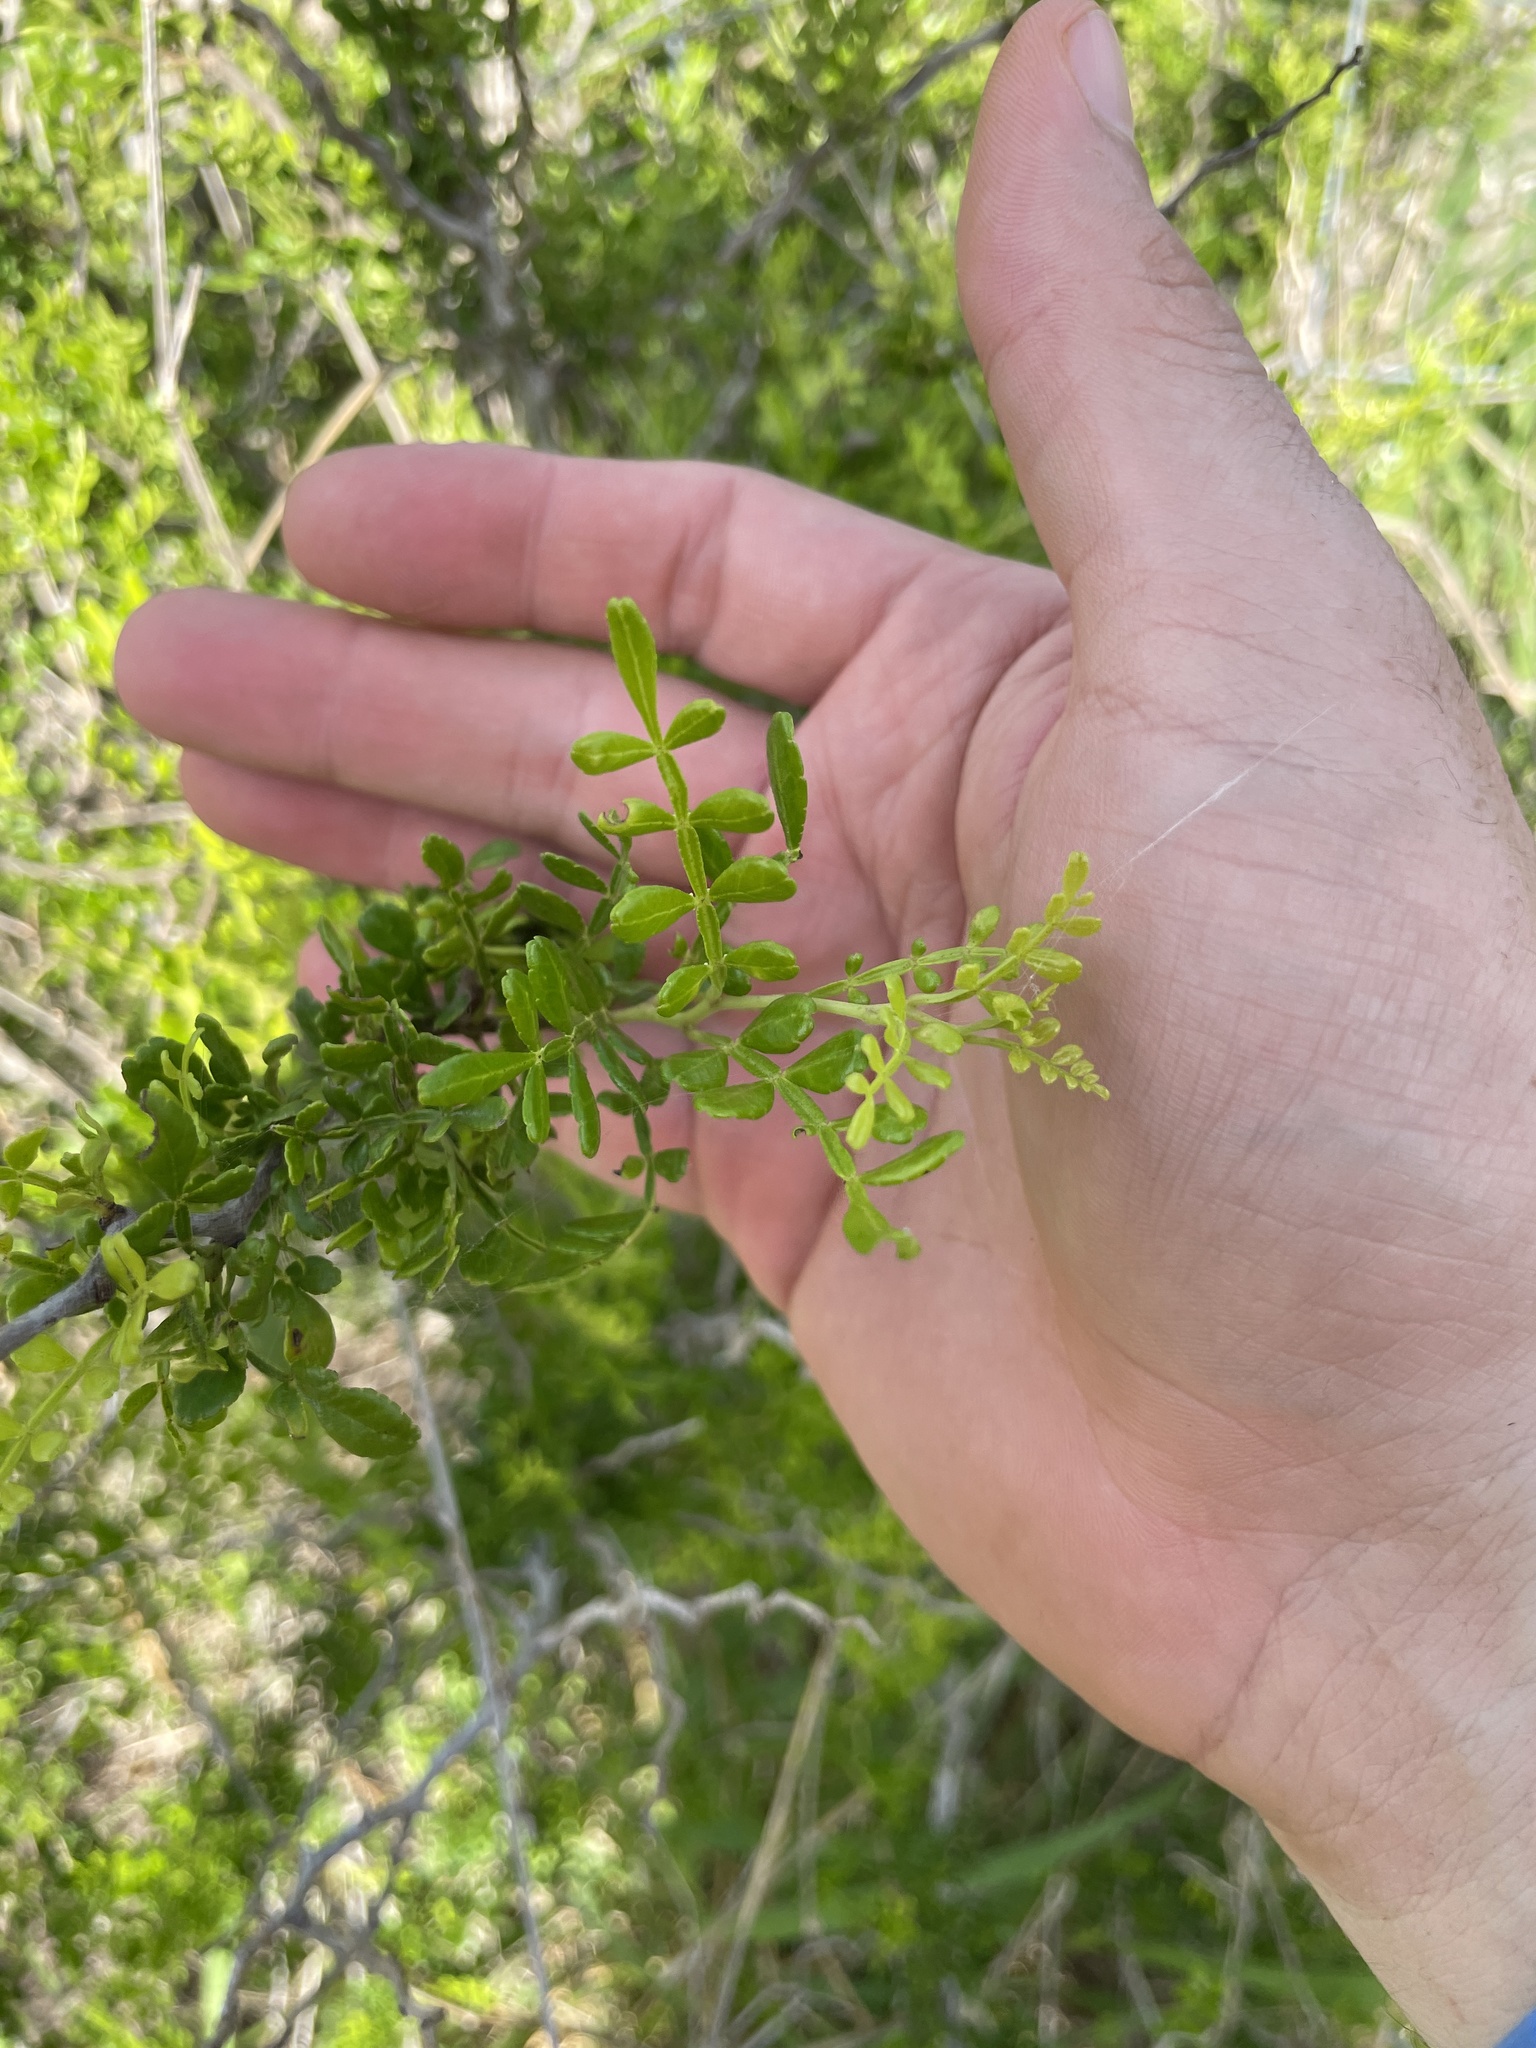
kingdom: Plantae
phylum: Tracheophyta
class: Magnoliopsida
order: Sapindales
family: Rutaceae
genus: Zanthoxylum
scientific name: Zanthoxylum fagara
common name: Lime prickly-ash
